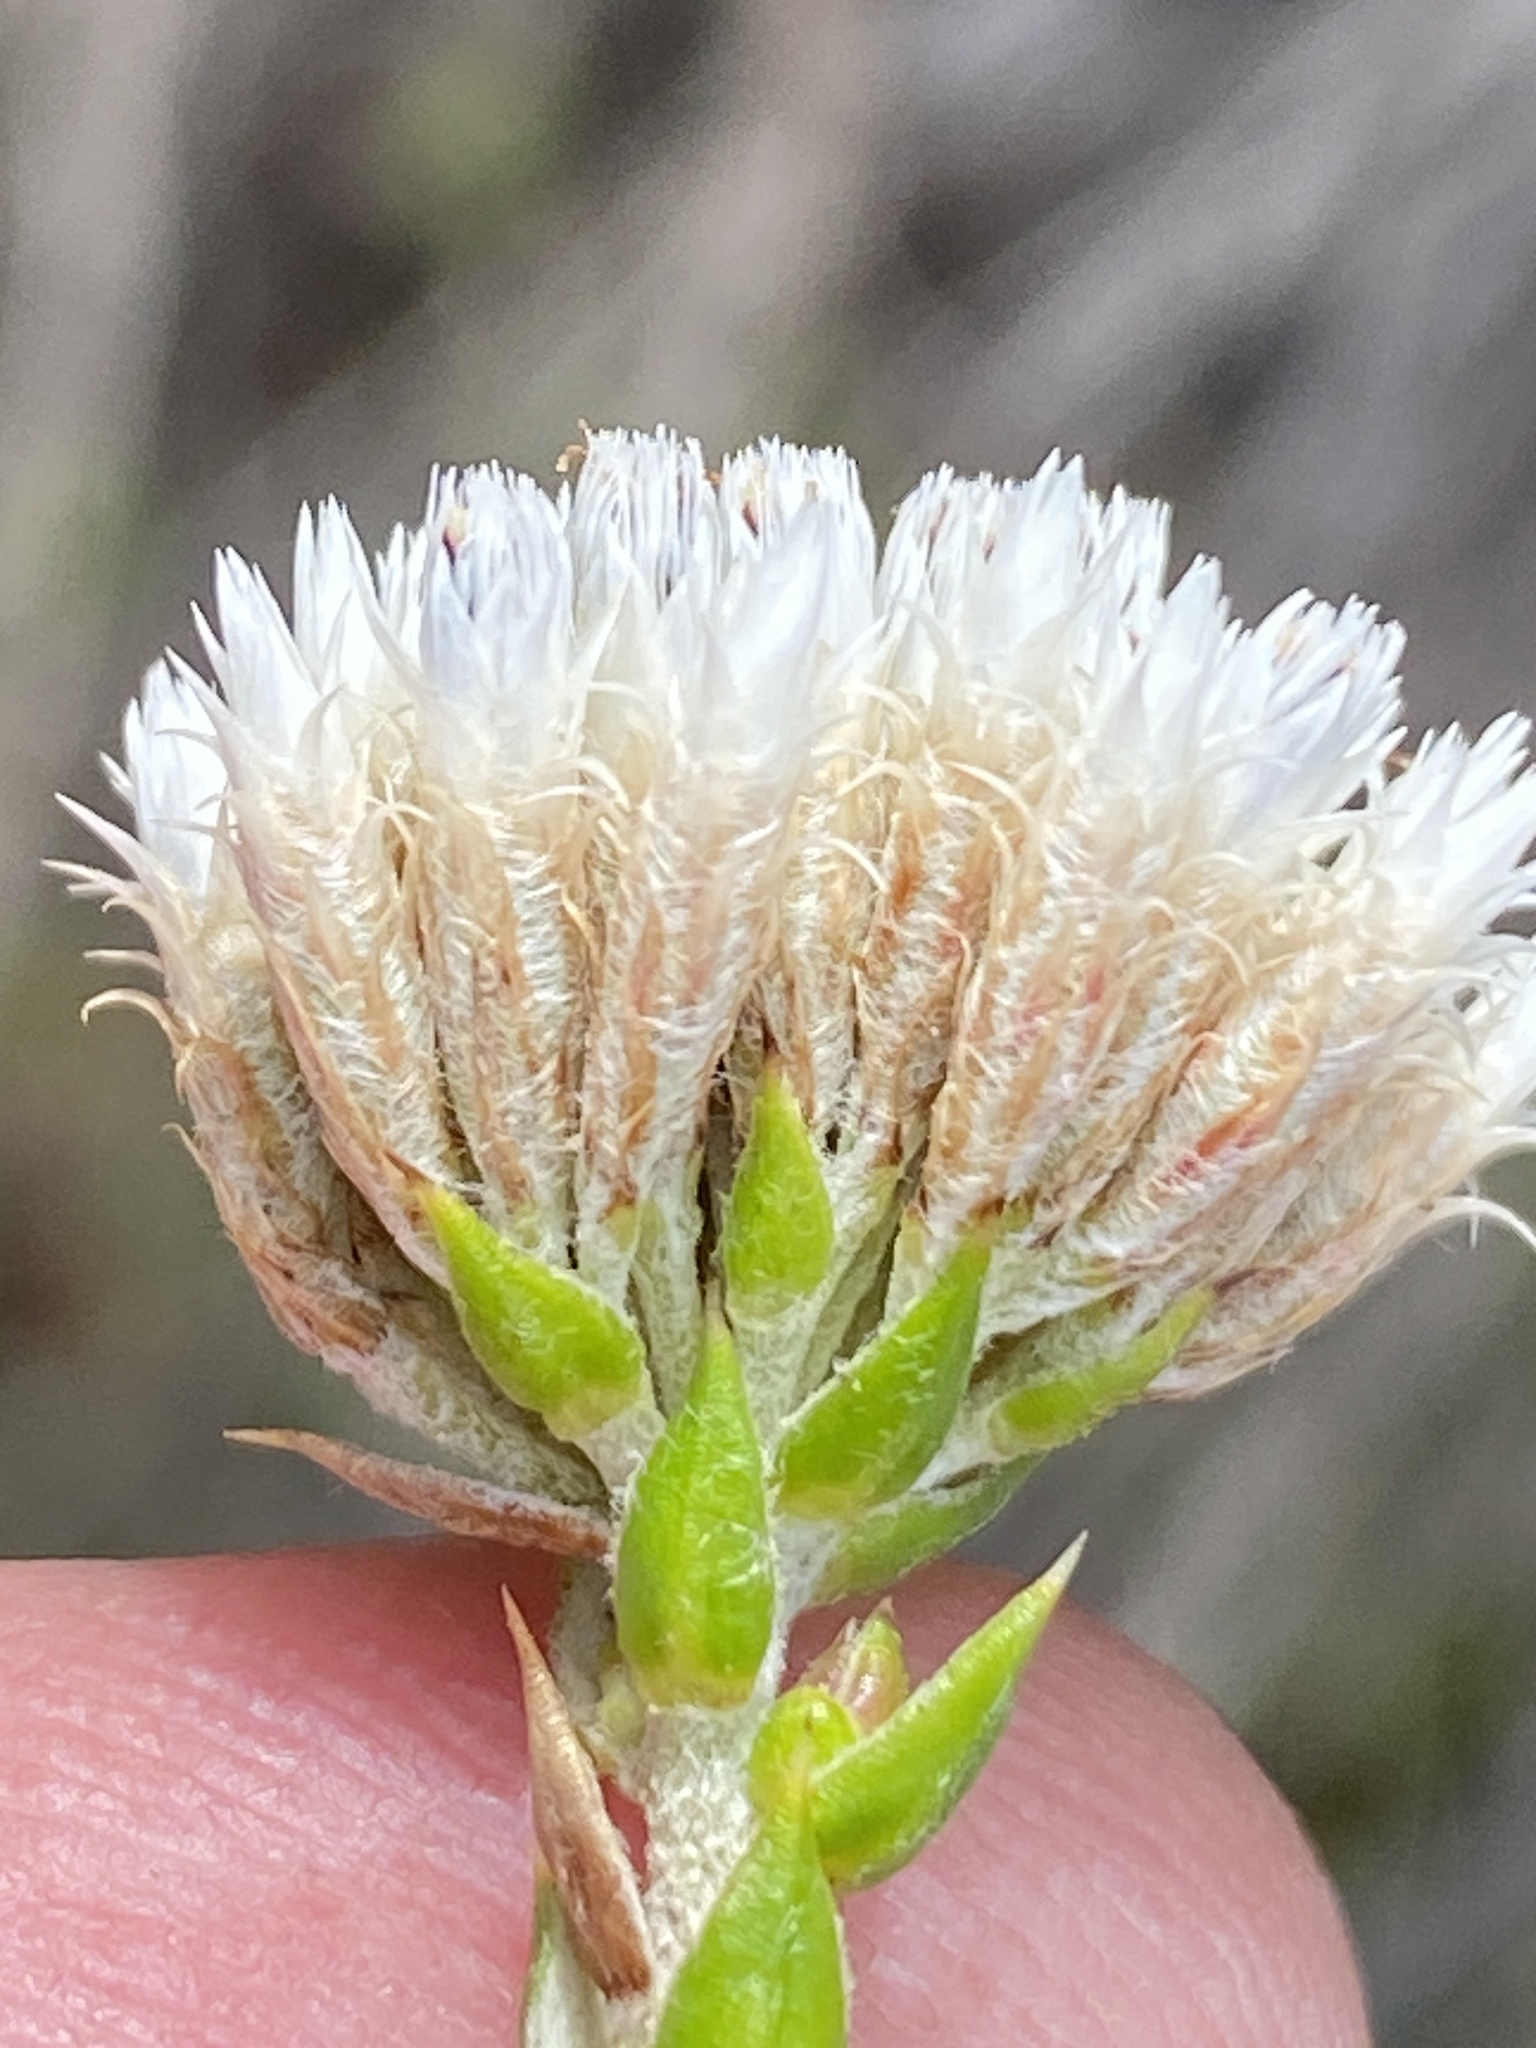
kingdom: Plantae
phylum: Tracheophyta
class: Magnoliopsida
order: Asterales
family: Asteraceae
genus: Metalasia
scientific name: Metalasia pulcherrima
